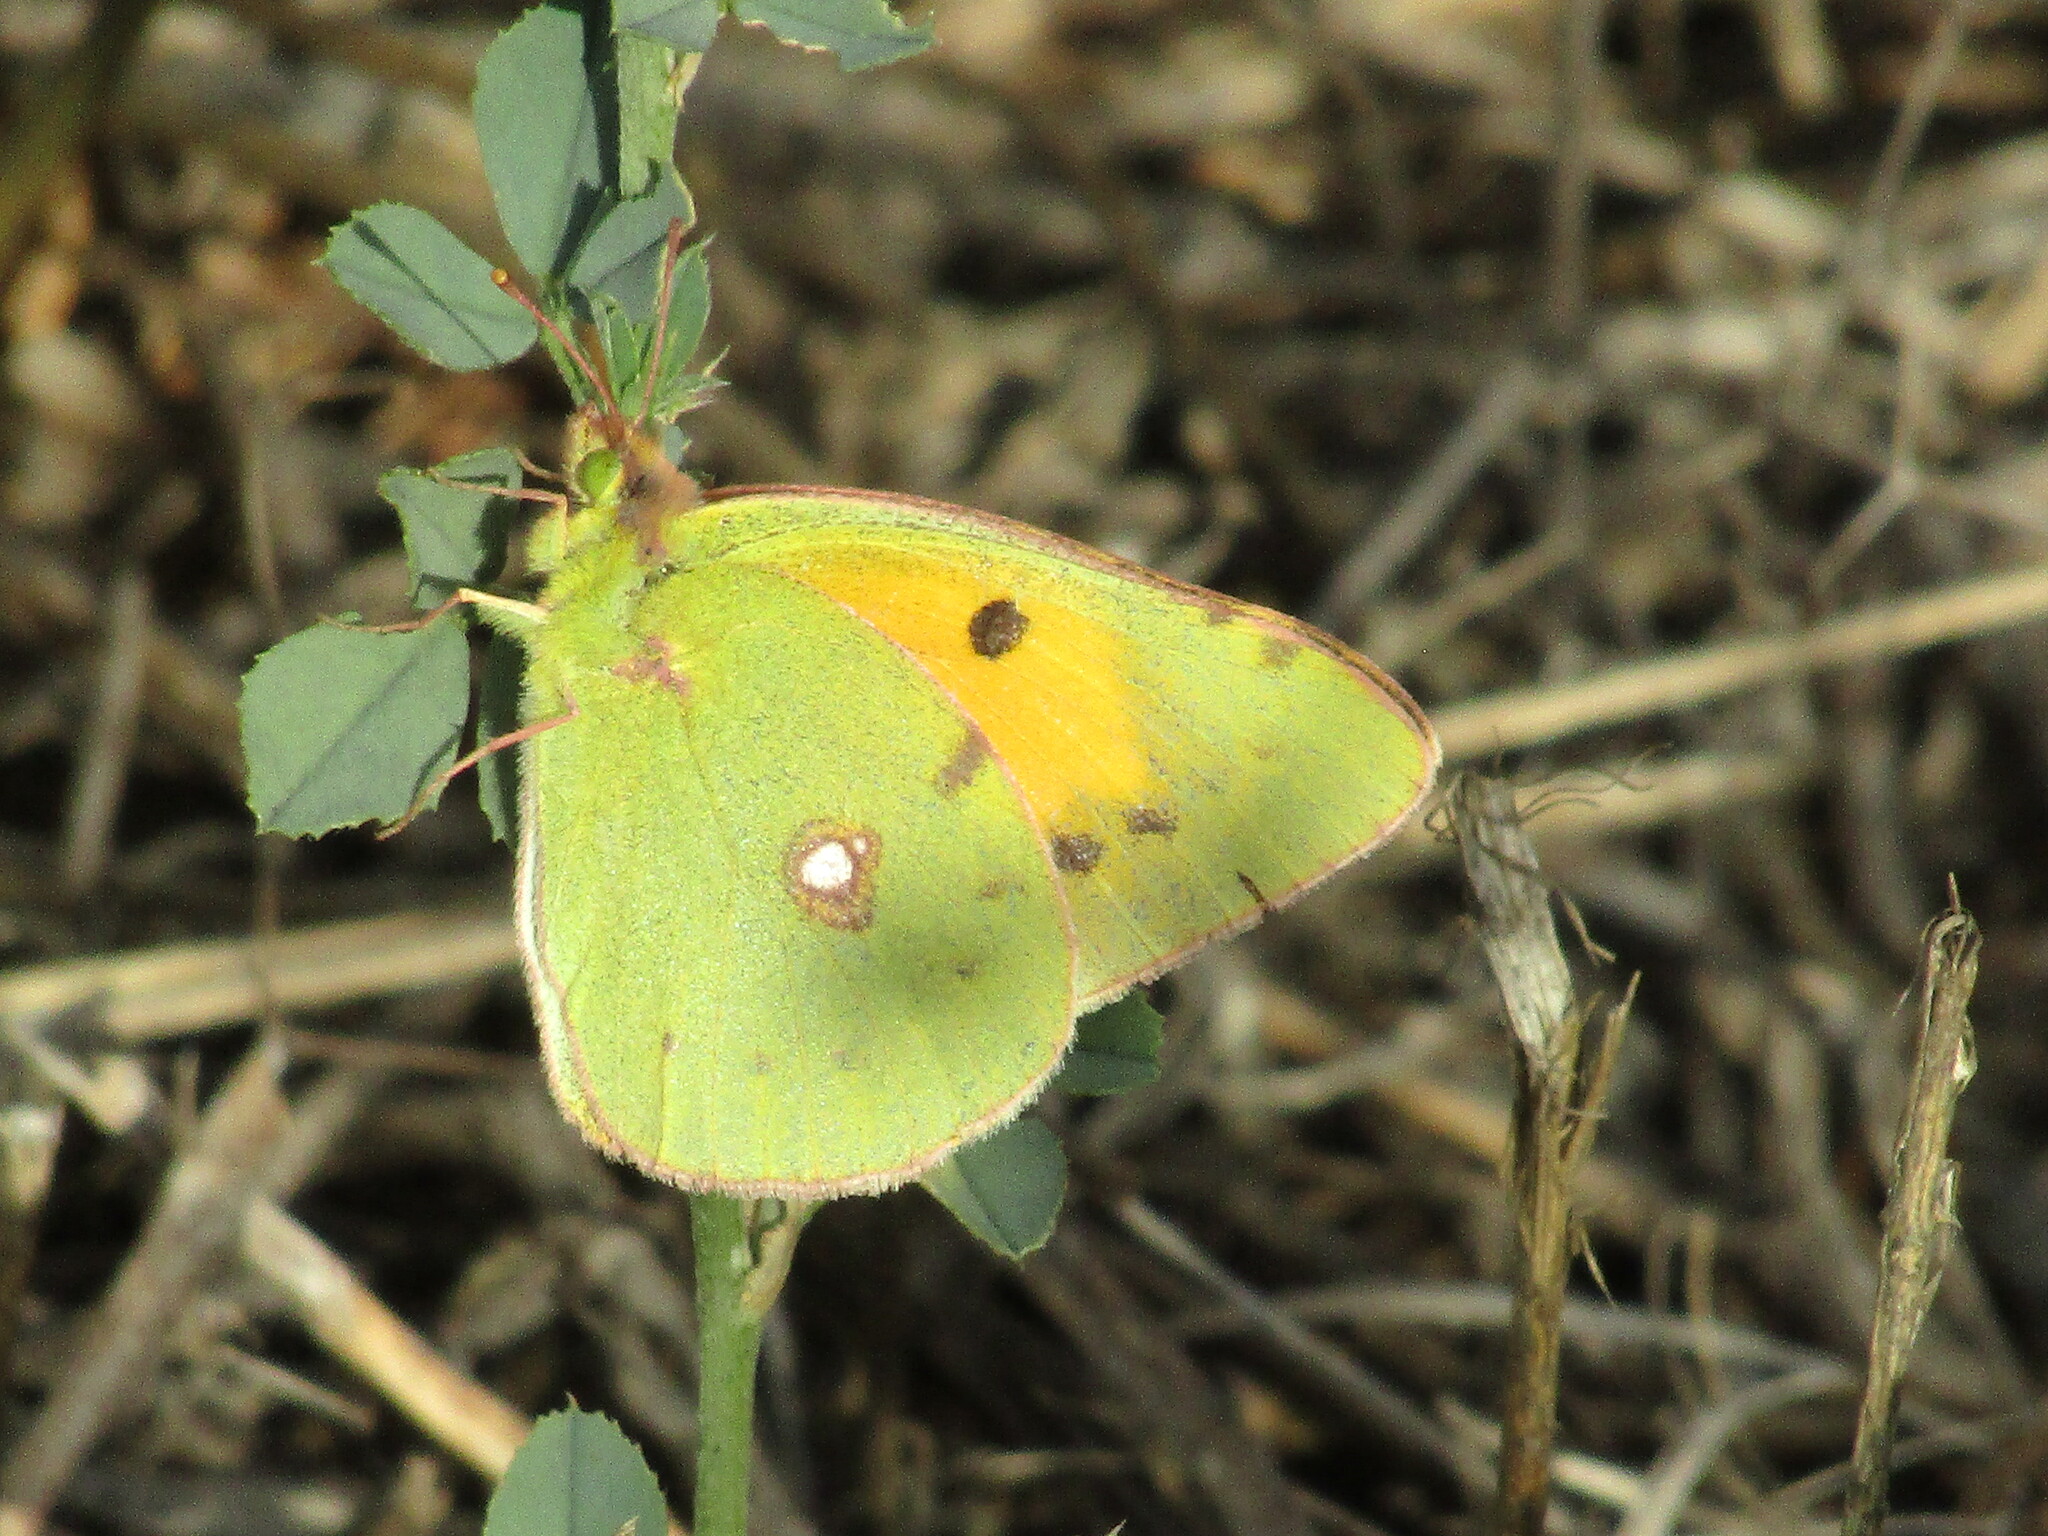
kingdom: Animalia
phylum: Arthropoda
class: Insecta
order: Lepidoptera
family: Pieridae
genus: Colias
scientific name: Colias croceus
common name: Clouded yellow
